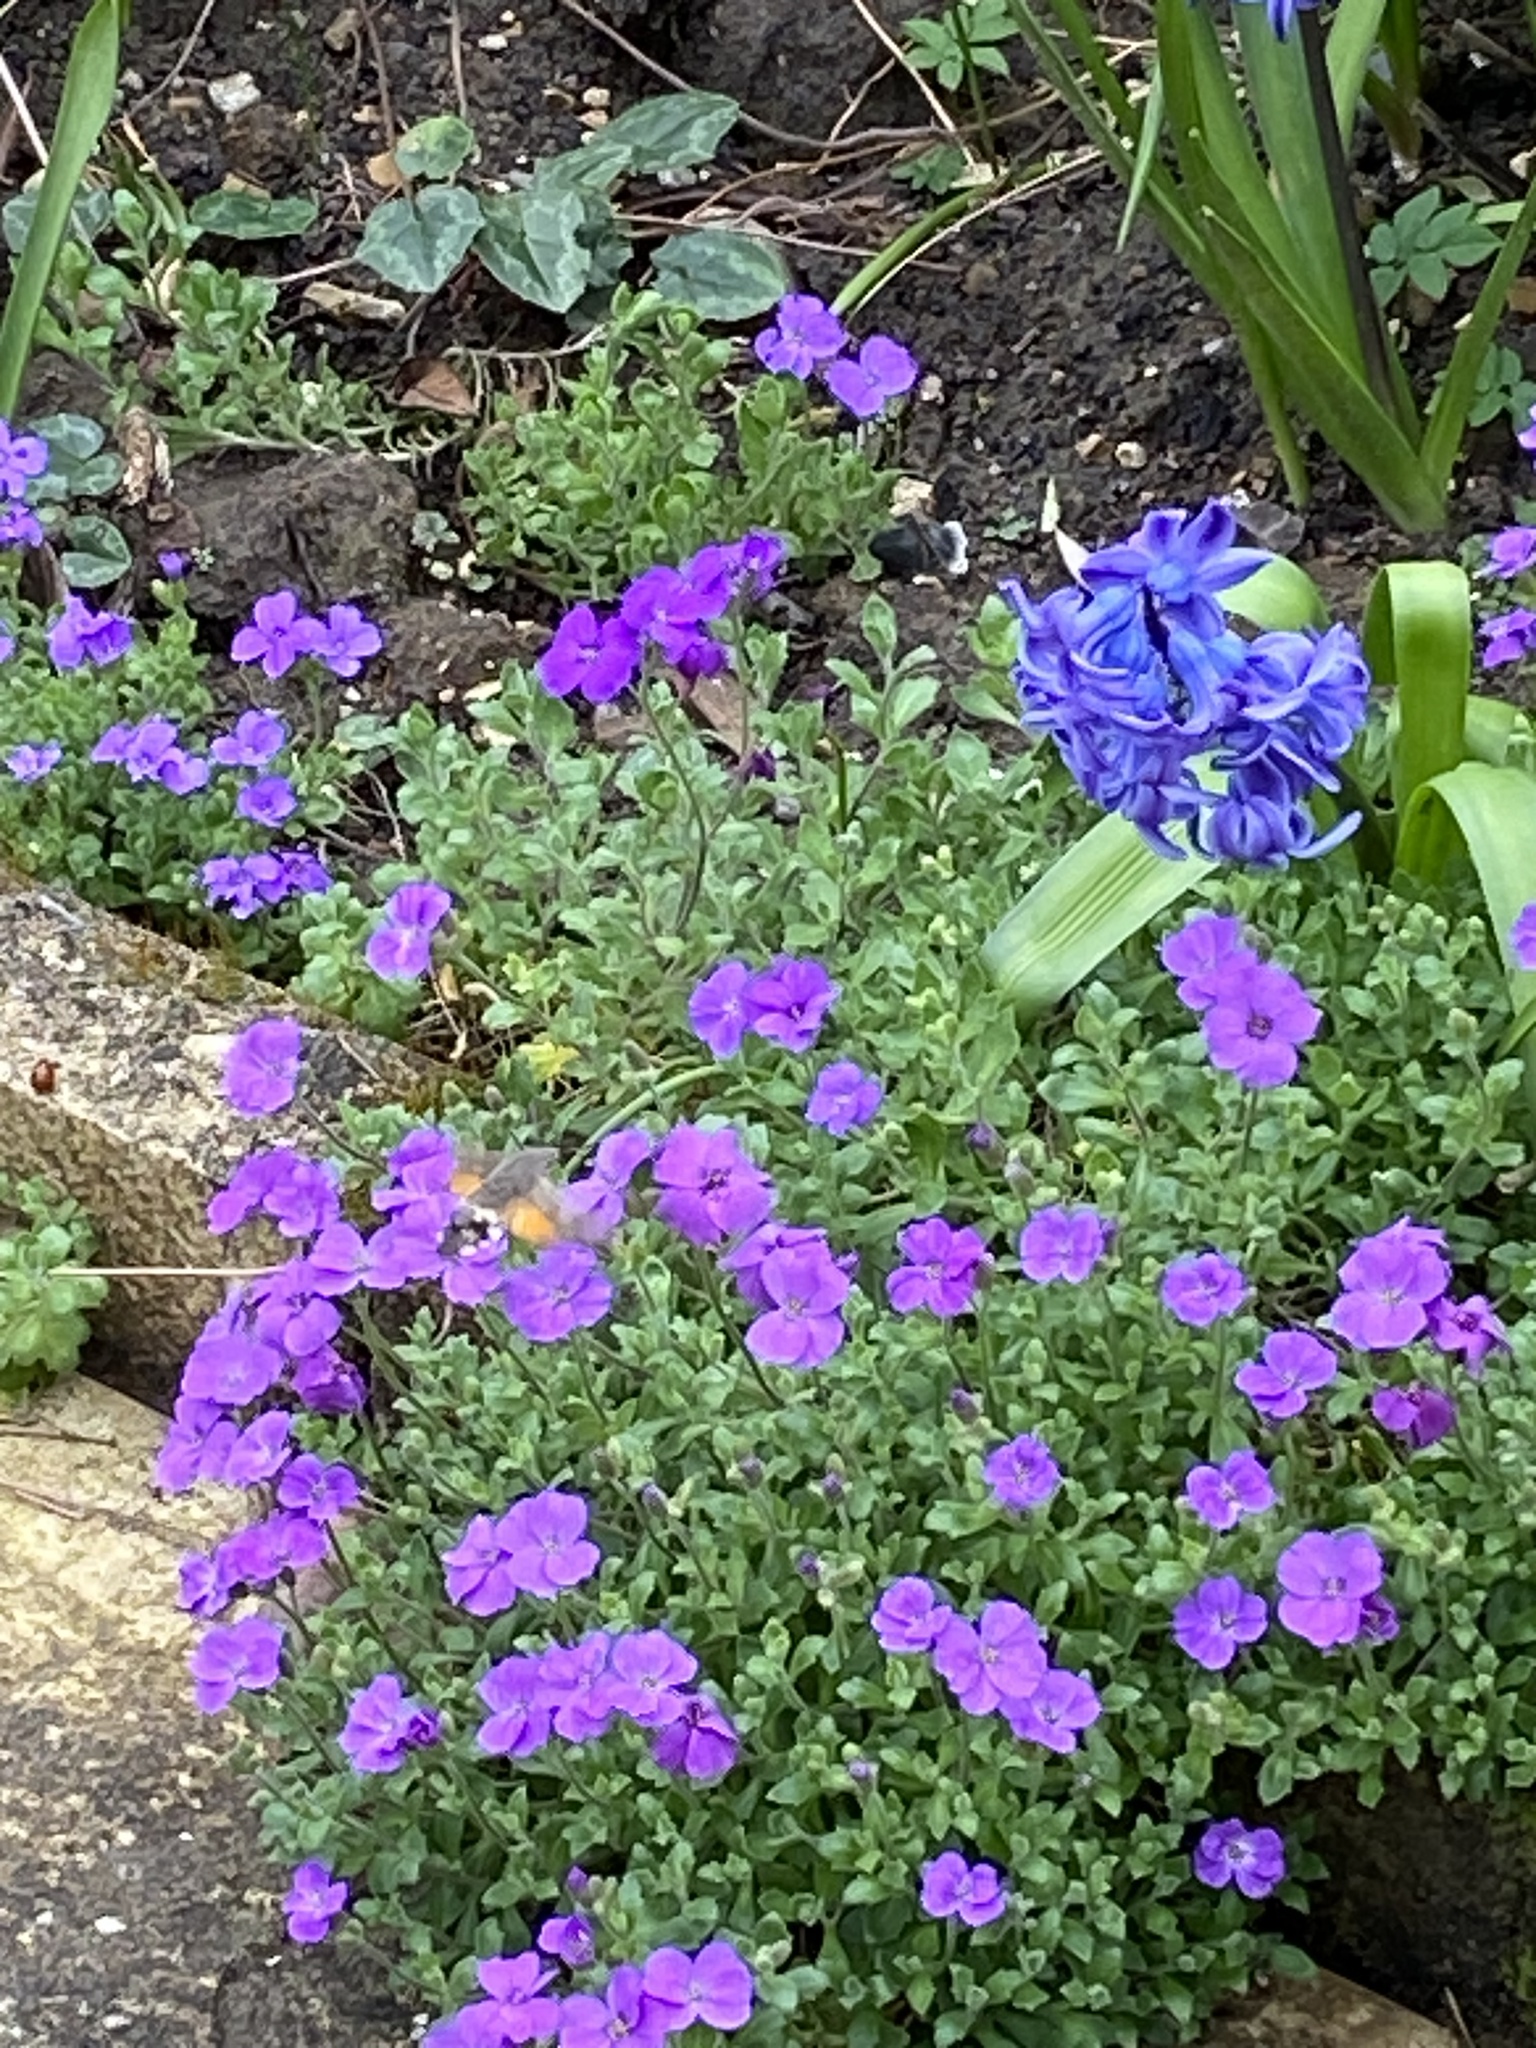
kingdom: Animalia
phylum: Arthropoda
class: Insecta
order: Lepidoptera
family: Sphingidae
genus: Macroglossum
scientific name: Macroglossum stellatarum
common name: Humming-bird hawk-moth
